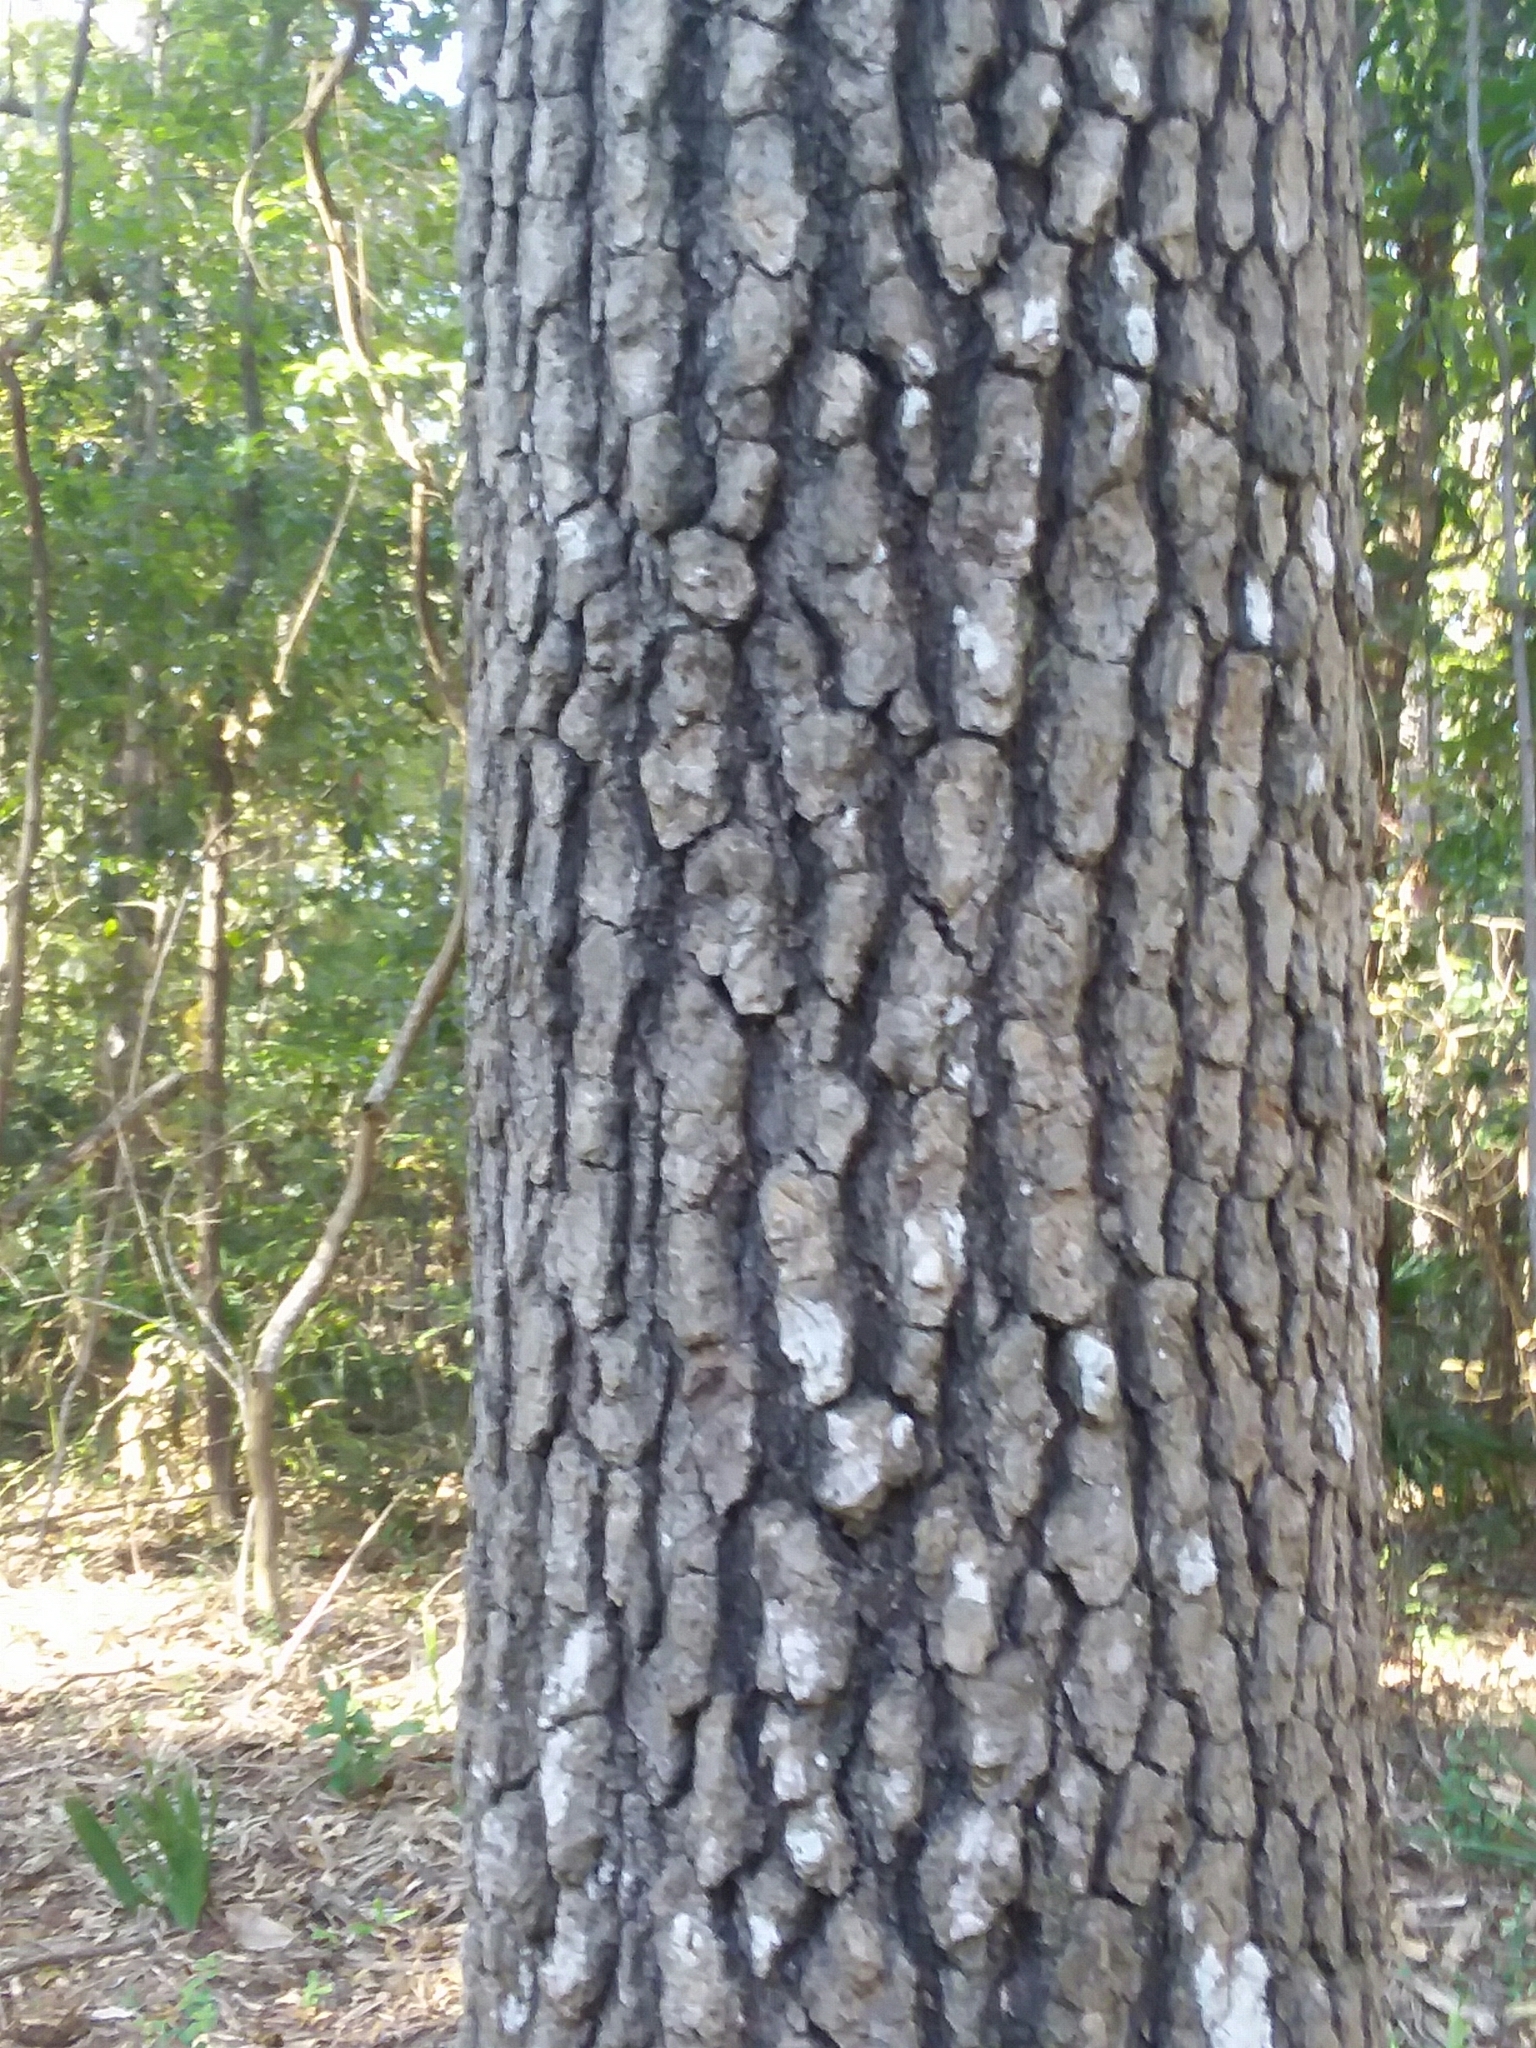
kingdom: Plantae
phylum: Tracheophyta
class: Magnoliopsida
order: Saxifragales
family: Altingiaceae
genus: Liquidambar
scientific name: Liquidambar styraciflua
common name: Sweet gum
